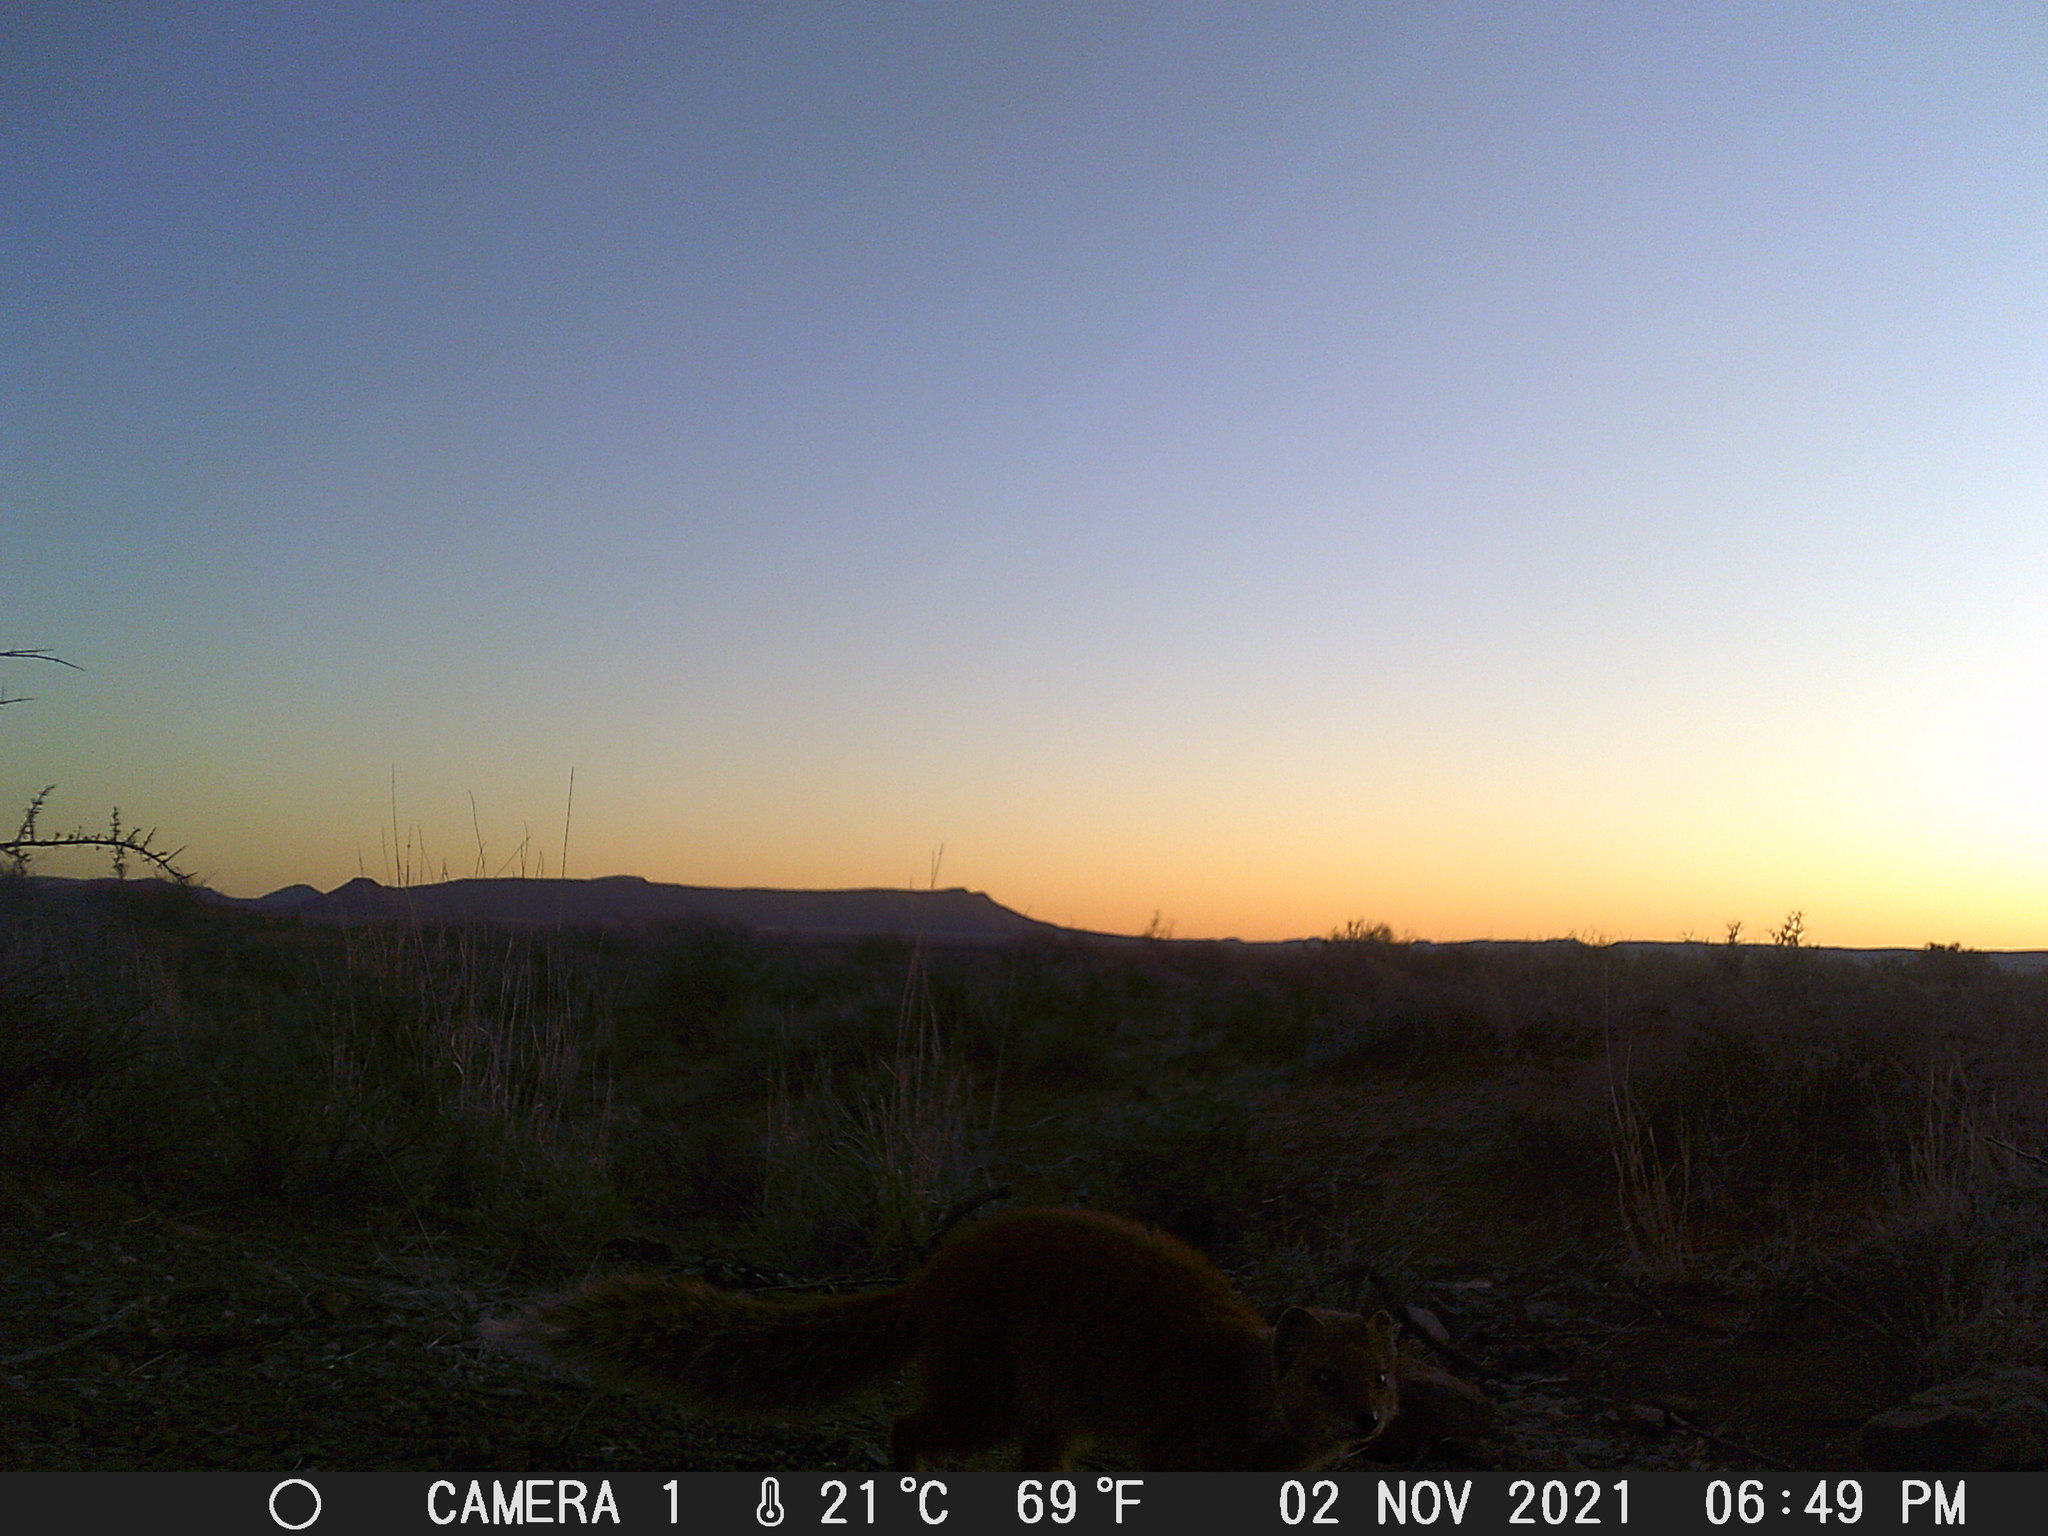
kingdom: Animalia
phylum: Chordata
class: Mammalia
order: Carnivora
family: Herpestidae
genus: Cynictis
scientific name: Cynictis penicillata
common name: Yellow mongoose
